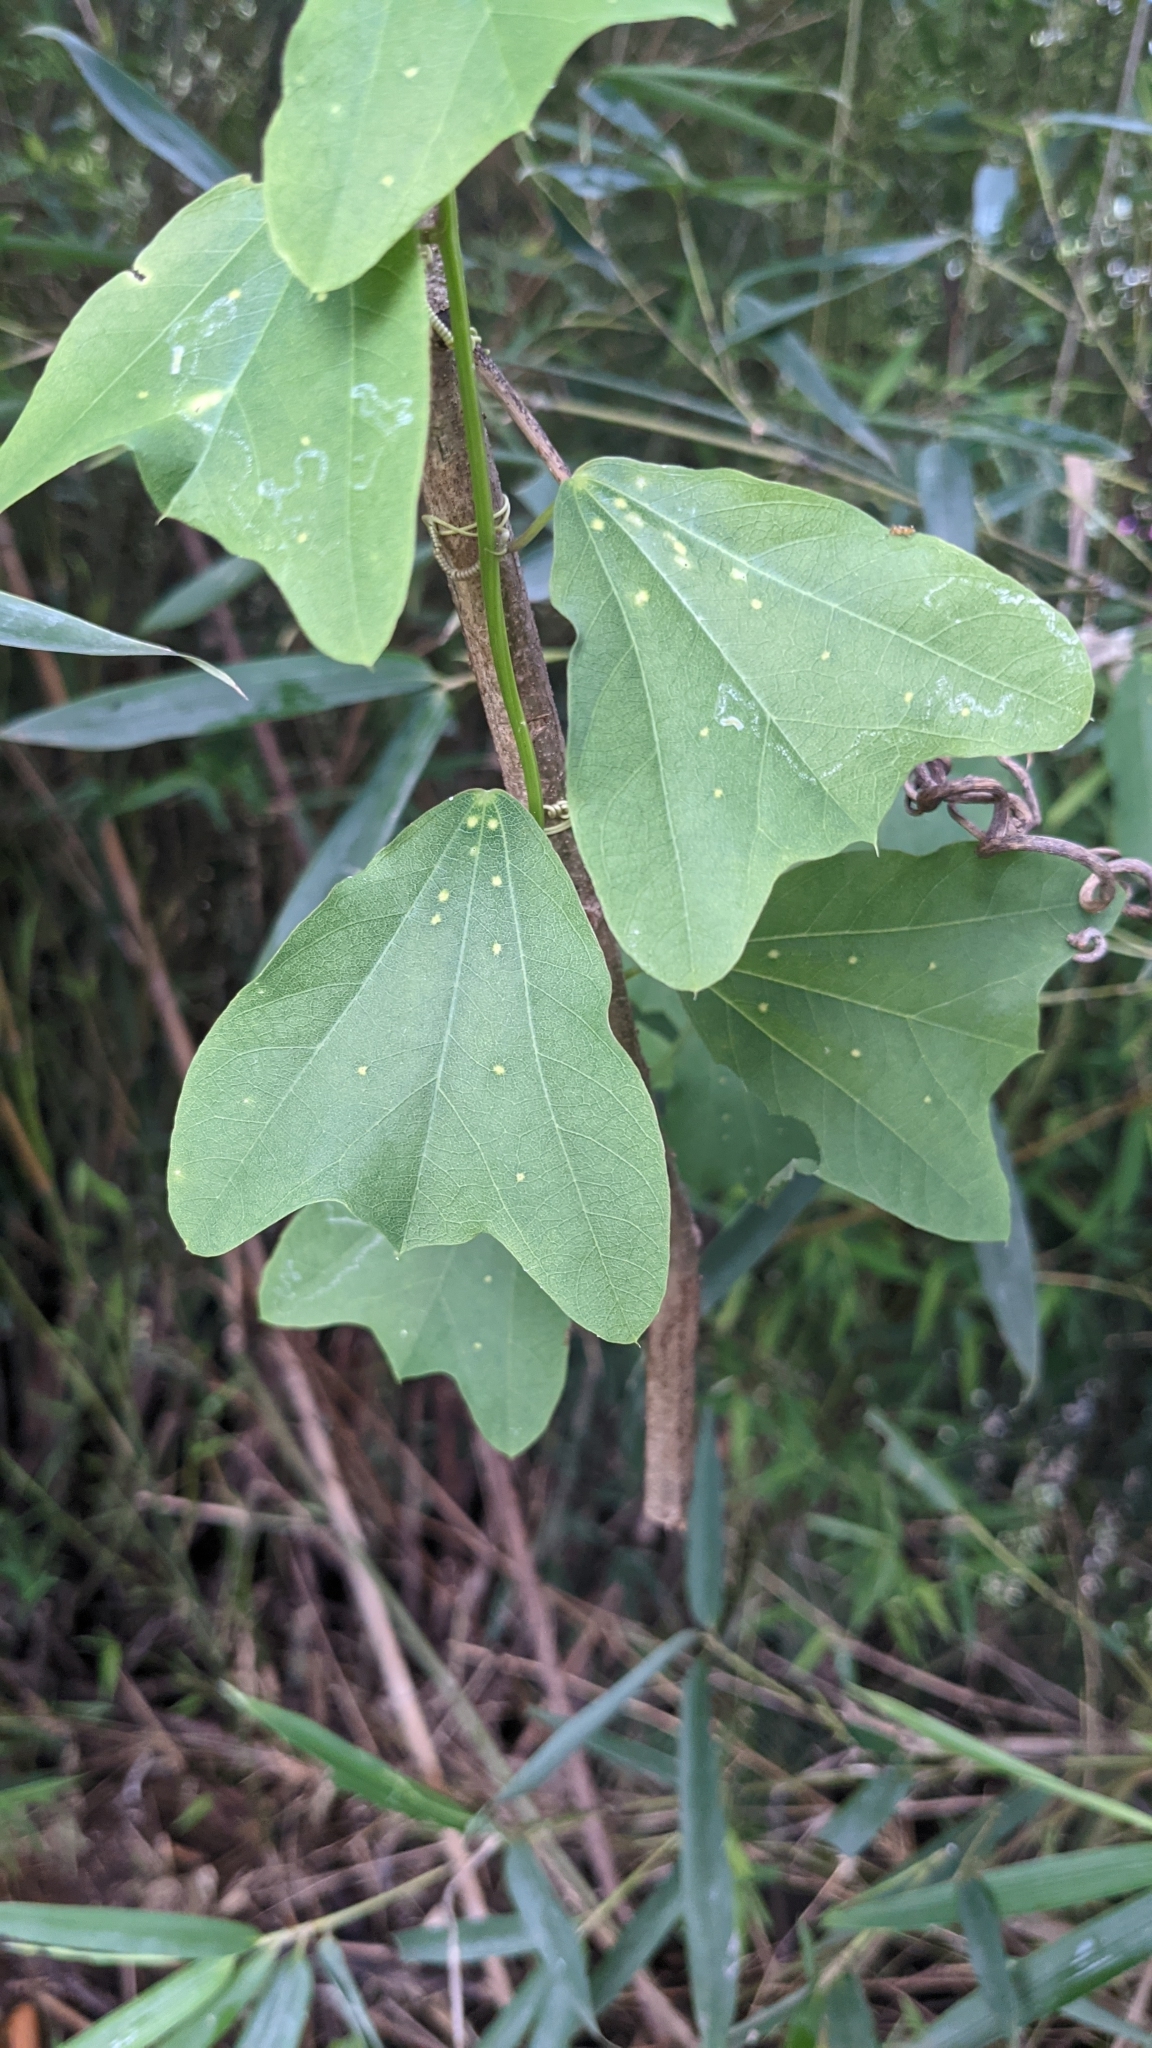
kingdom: Plantae
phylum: Tracheophyta
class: Magnoliopsida
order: Malpighiales
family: Passifloraceae
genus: Passiflora
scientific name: Passiflora biflora
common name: Twoflower passionflower
